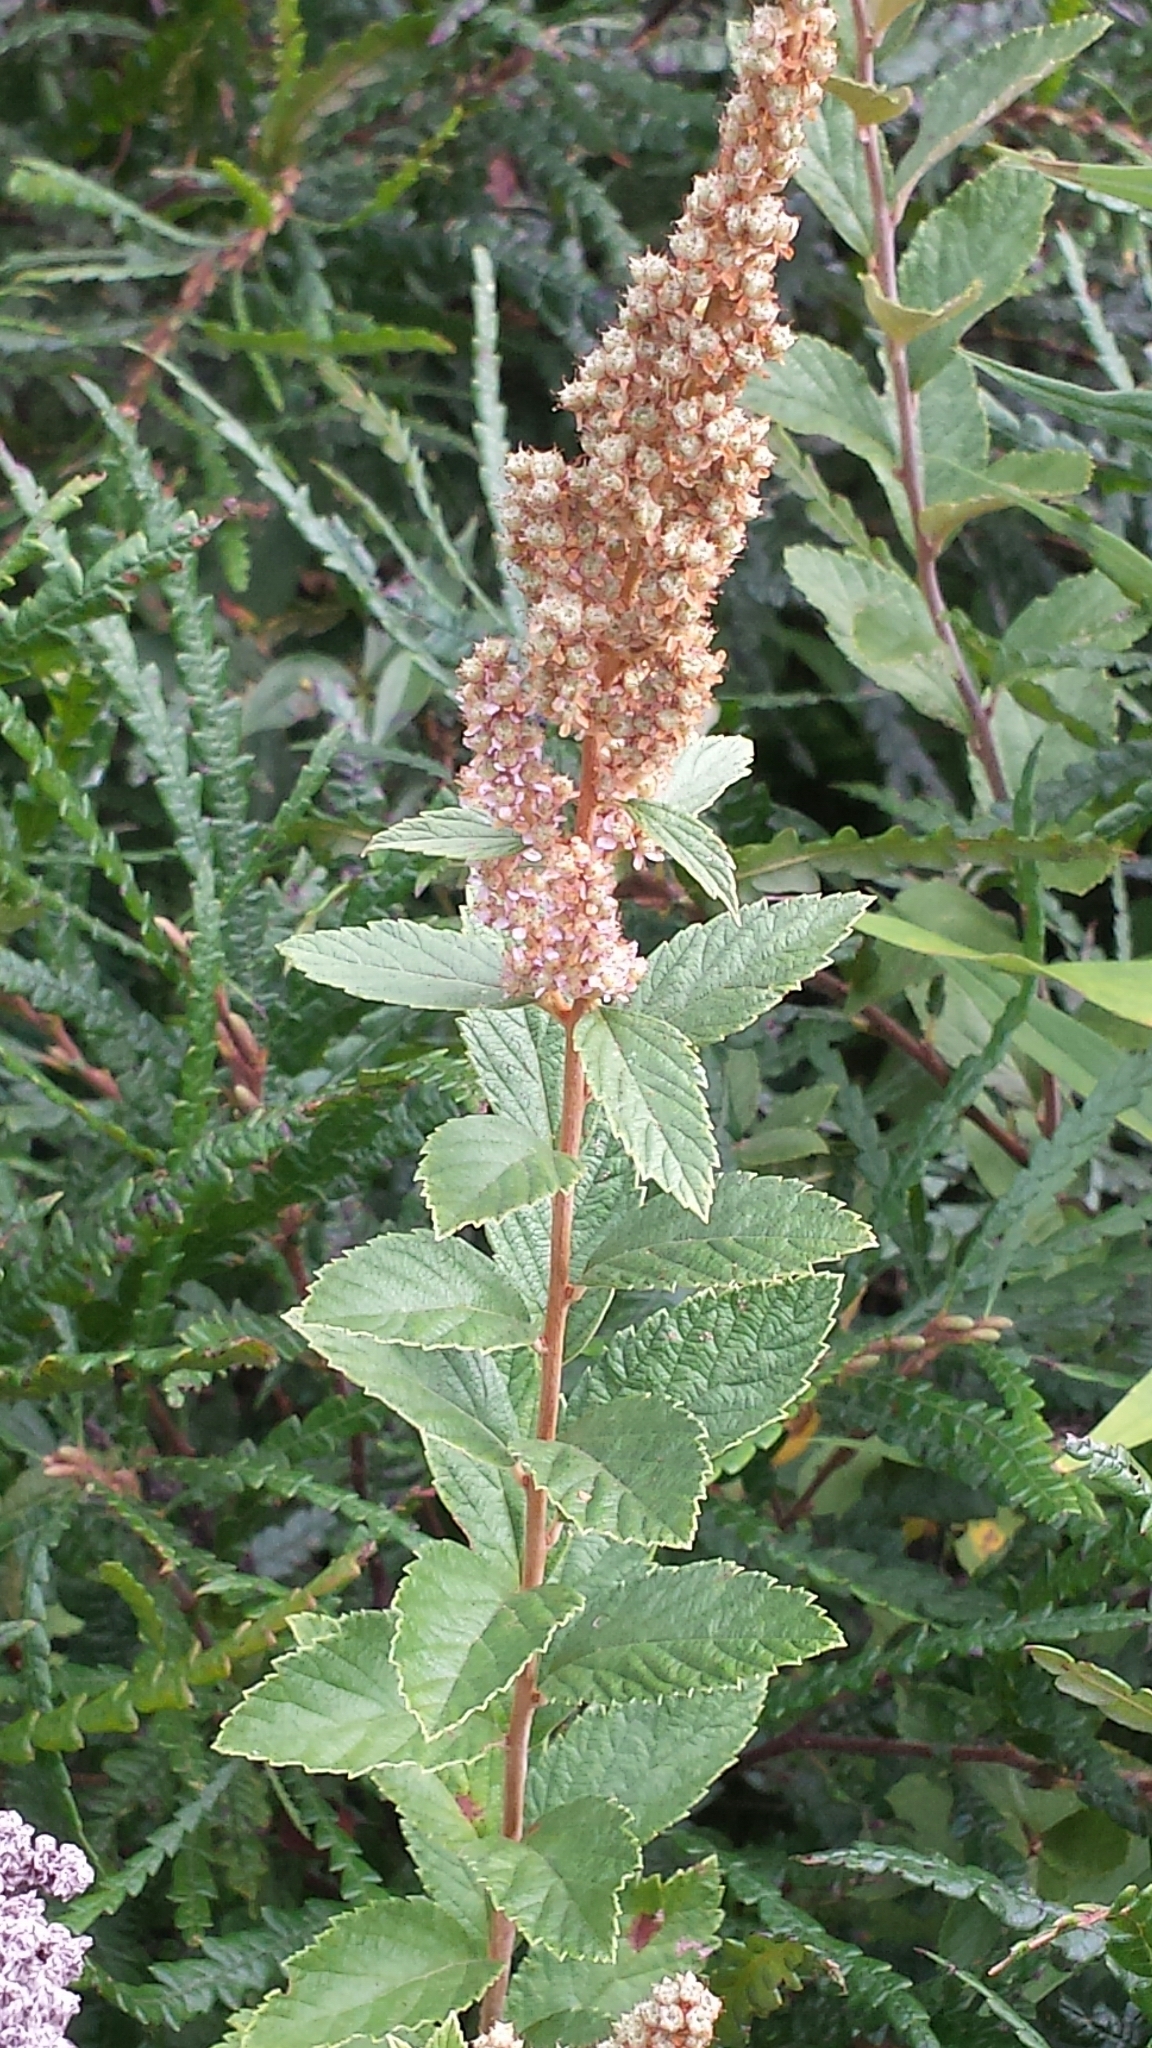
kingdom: Plantae
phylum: Tracheophyta
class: Magnoliopsida
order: Rosales
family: Rosaceae
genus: Spiraea
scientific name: Spiraea tomentosa
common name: Hardhack
